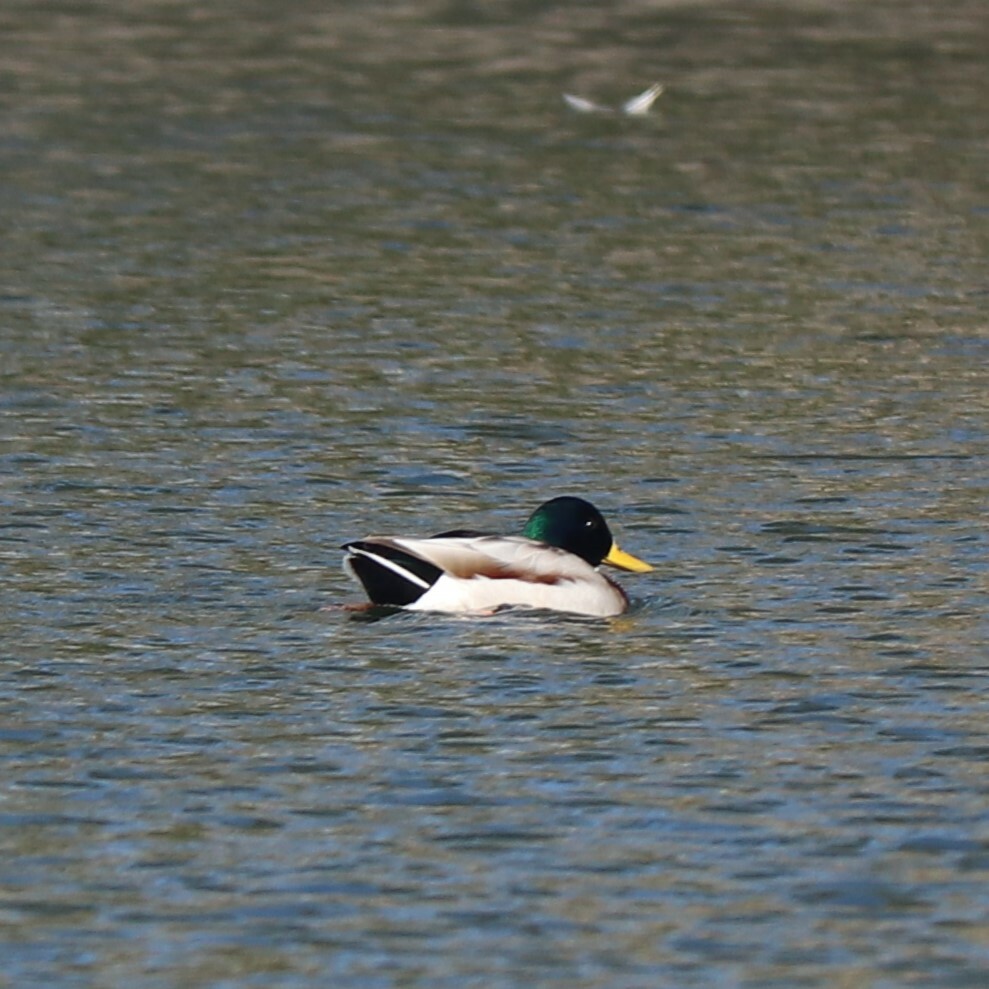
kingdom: Animalia
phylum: Chordata
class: Aves
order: Anseriformes
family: Anatidae
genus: Anas
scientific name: Anas platyrhynchos
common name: Mallard
